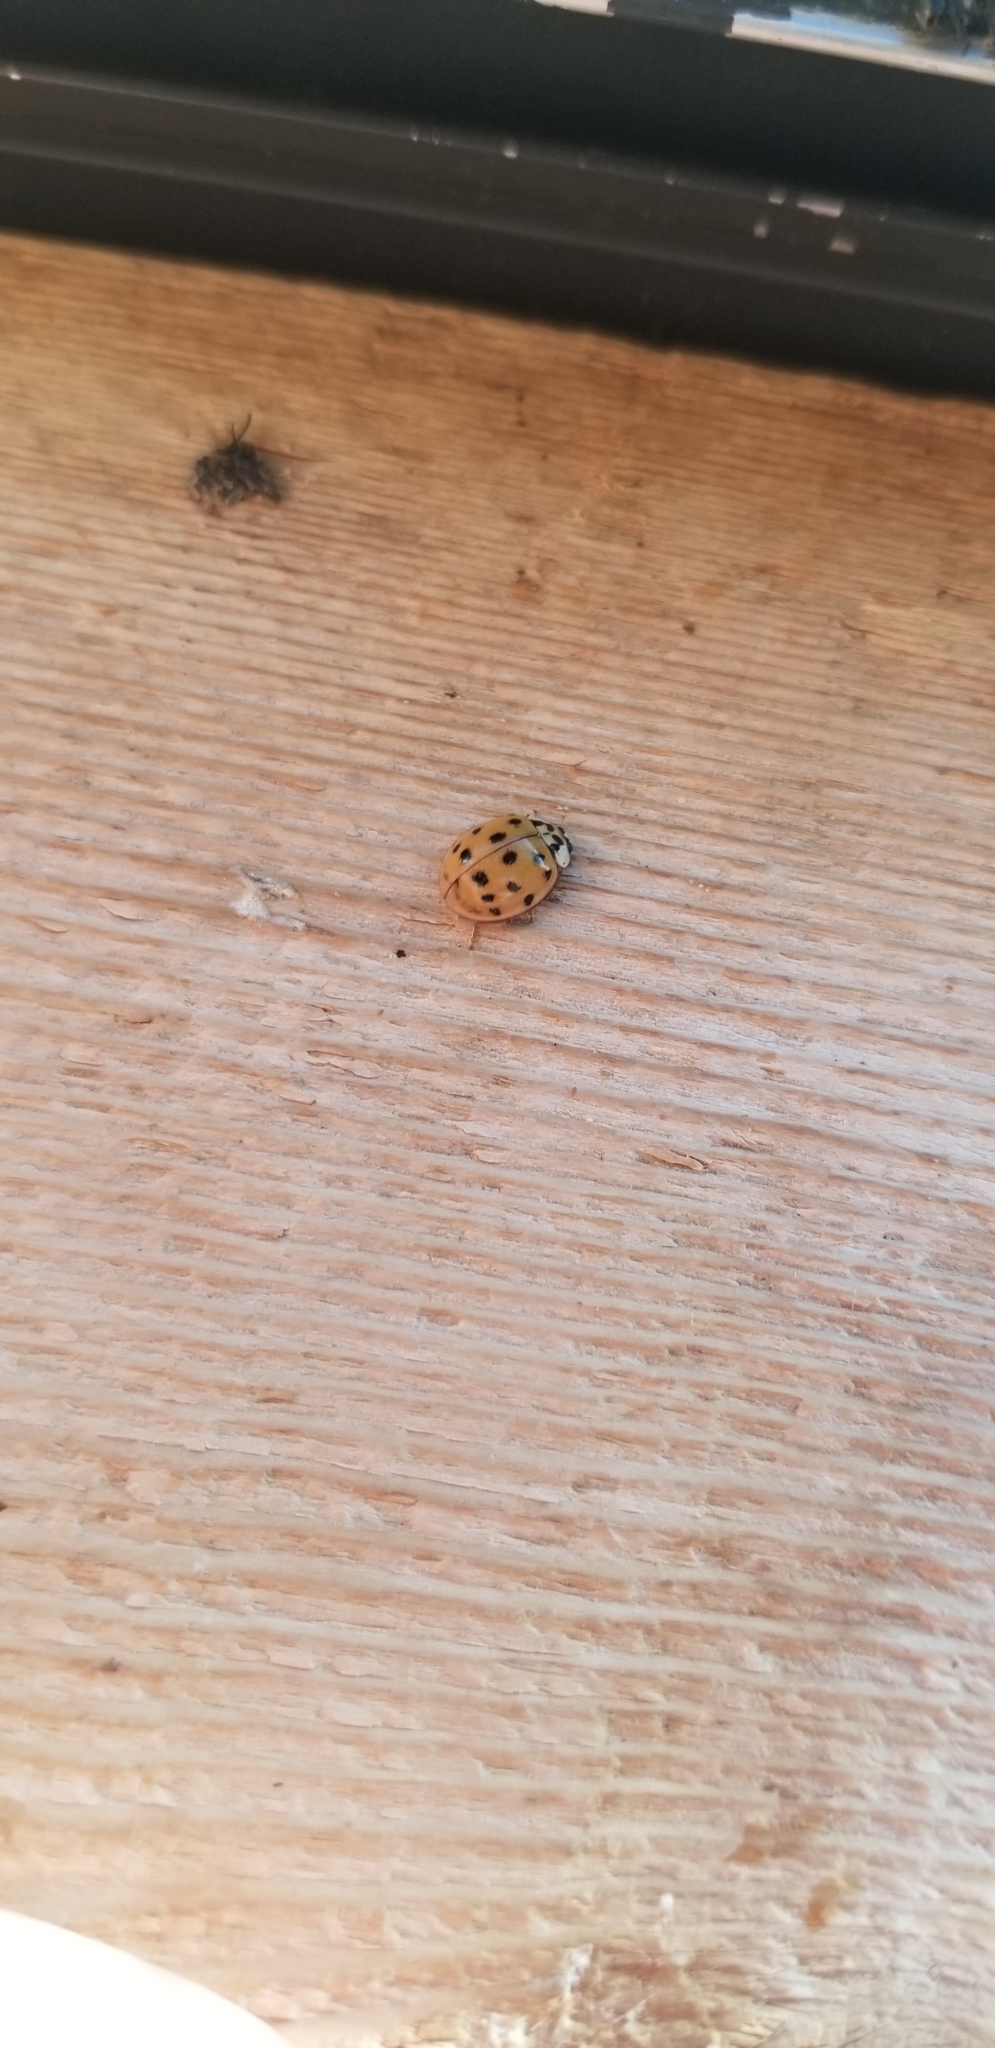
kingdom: Animalia
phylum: Arthropoda
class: Insecta
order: Coleoptera
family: Coccinellidae
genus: Harmonia
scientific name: Harmonia axyridis
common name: Harlequin ladybird
